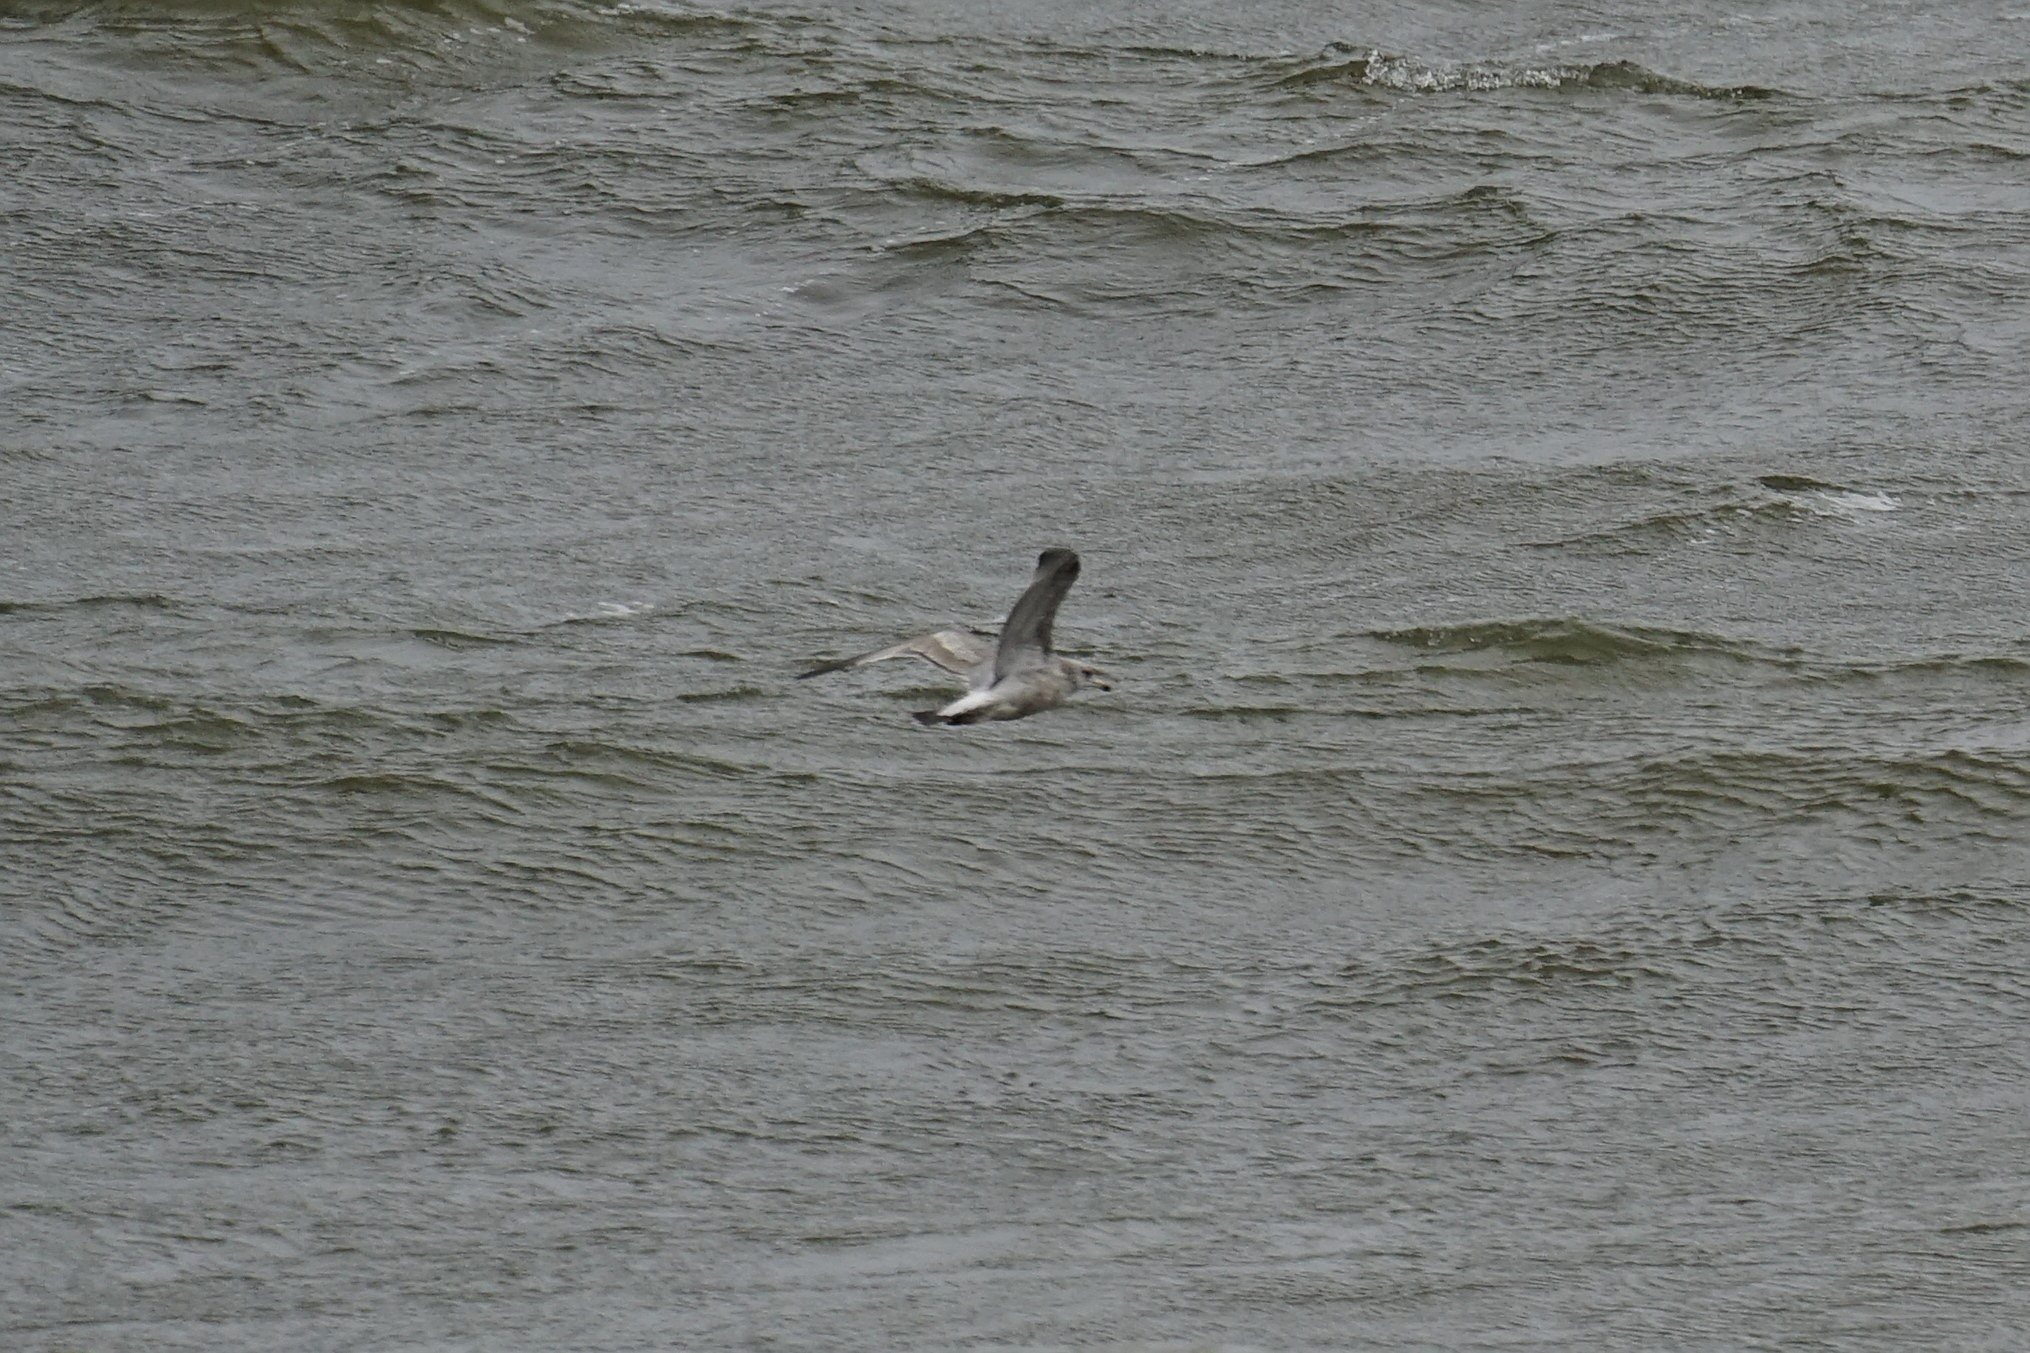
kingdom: Animalia
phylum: Chordata
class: Aves
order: Charadriiformes
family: Laridae
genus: Larus
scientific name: Larus argentatus
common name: Herring gull
